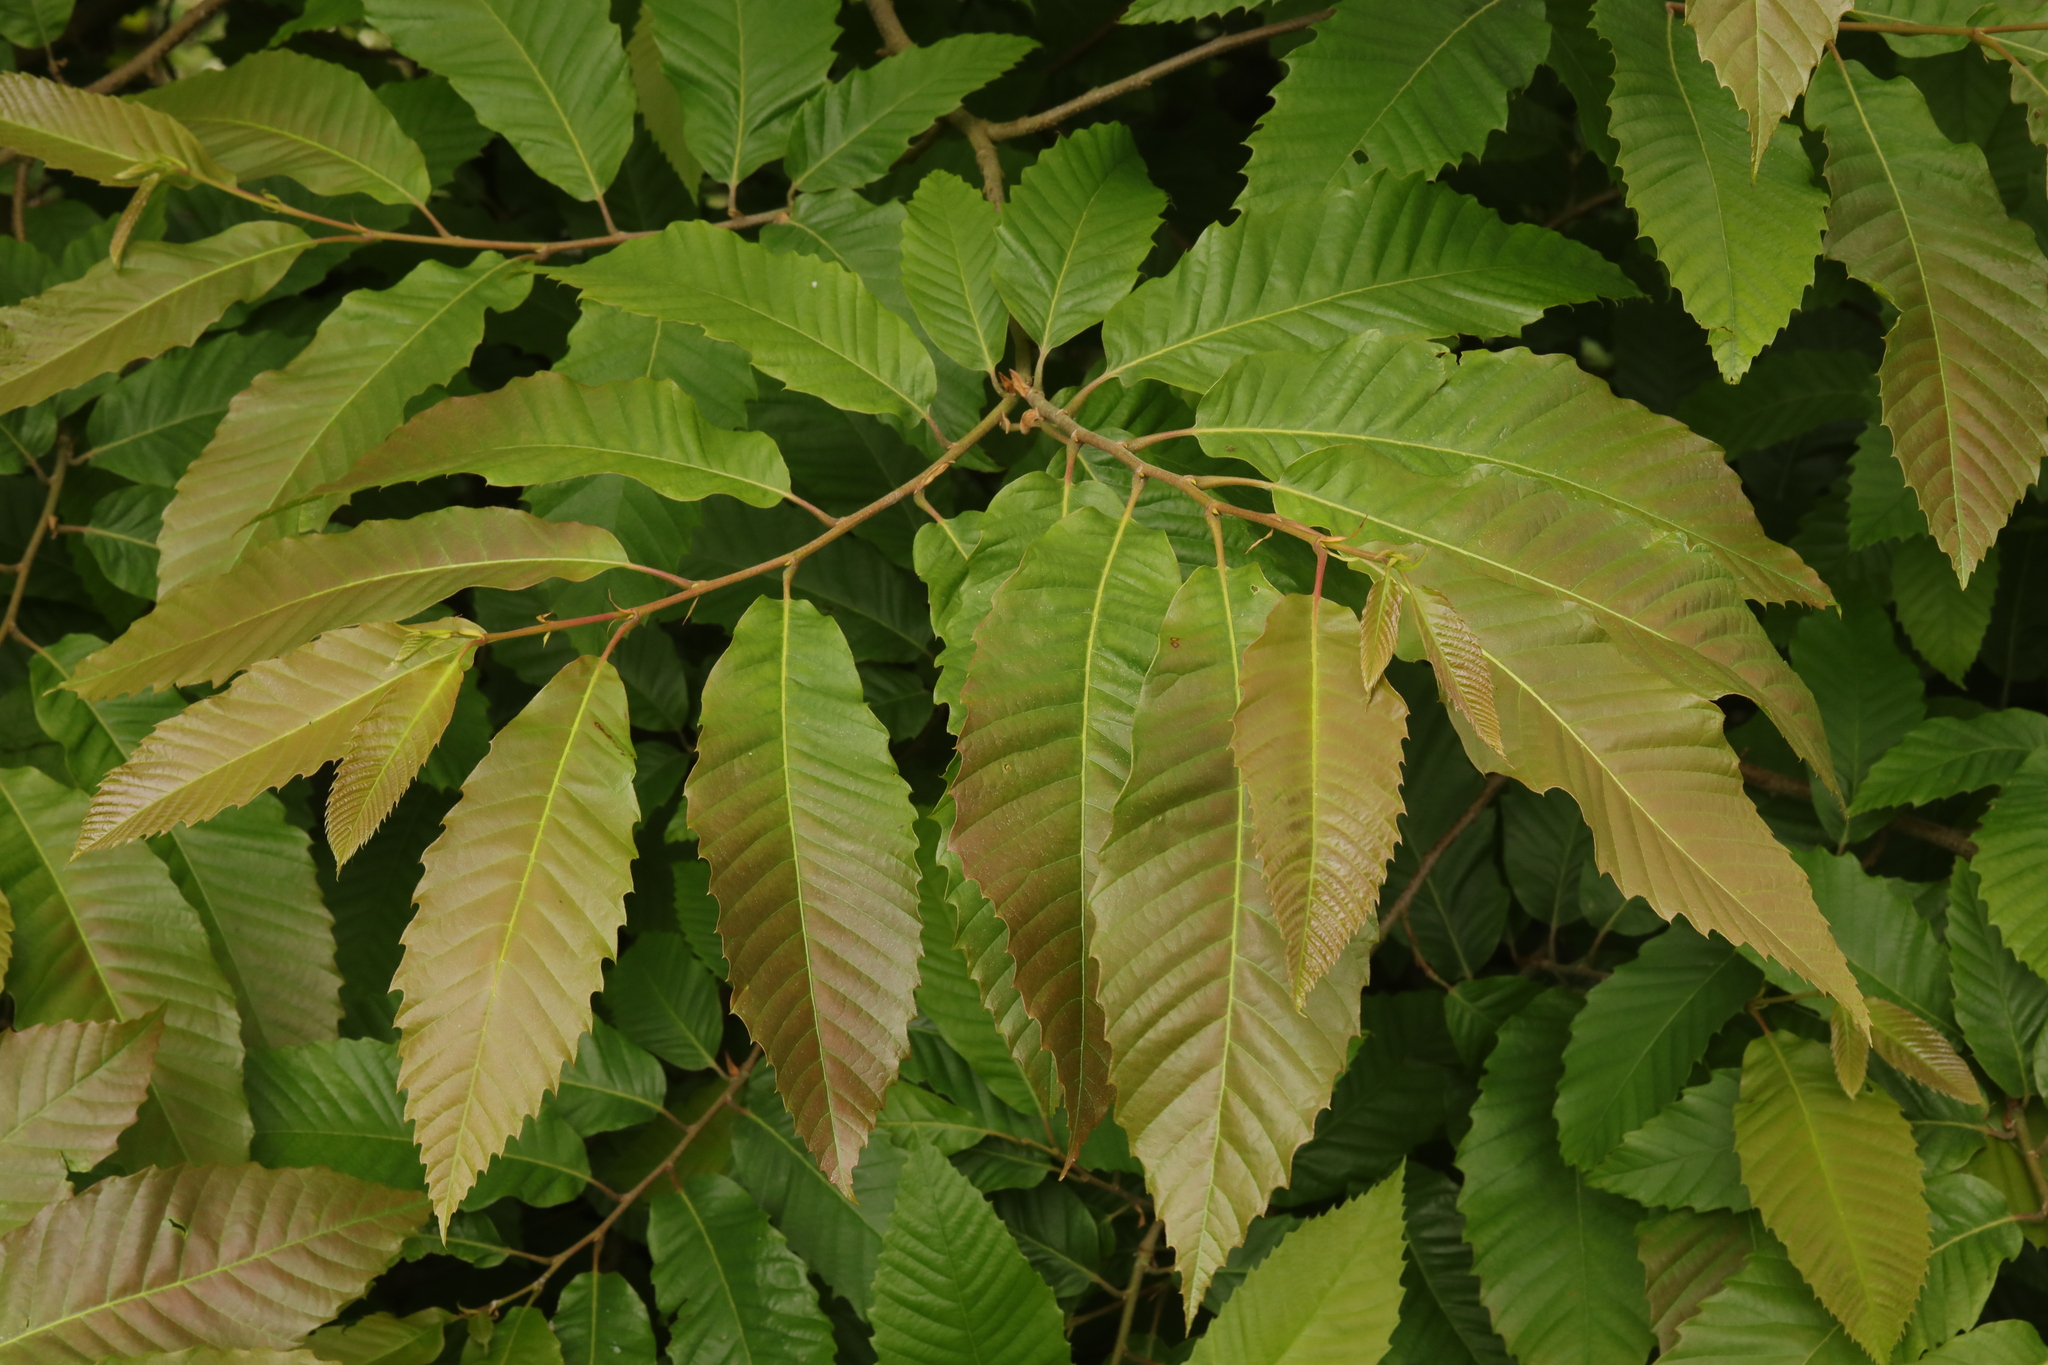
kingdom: Plantae
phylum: Tracheophyta
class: Magnoliopsida
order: Fagales
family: Fagaceae
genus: Castanea
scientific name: Castanea sativa
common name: Sweet chestnut
